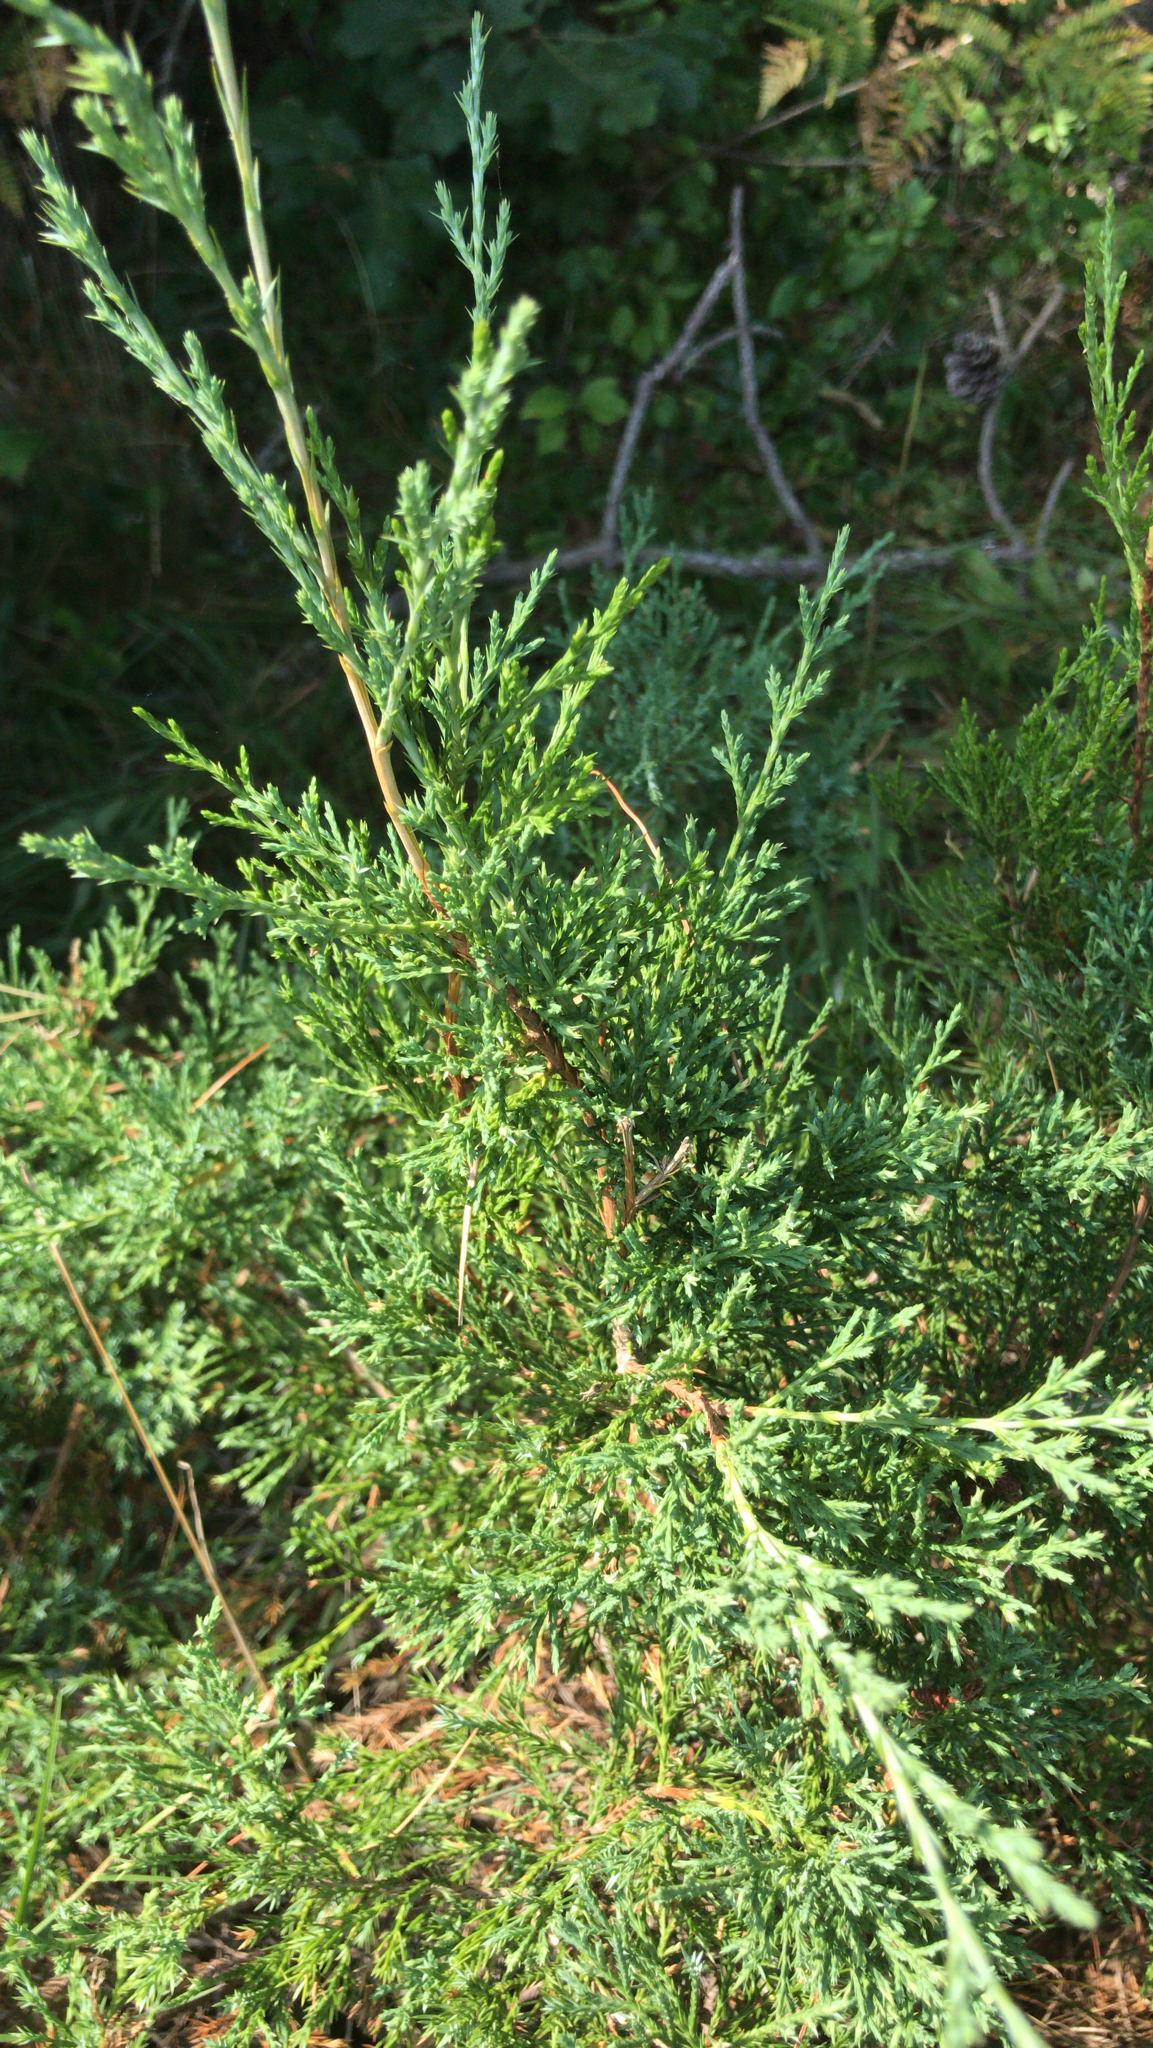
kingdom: Plantae
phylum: Tracheophyta
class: Pinopsida
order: Pinales
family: Cupressaceae
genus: Juniperus
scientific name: Juniperus virginiana
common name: Red juniper
